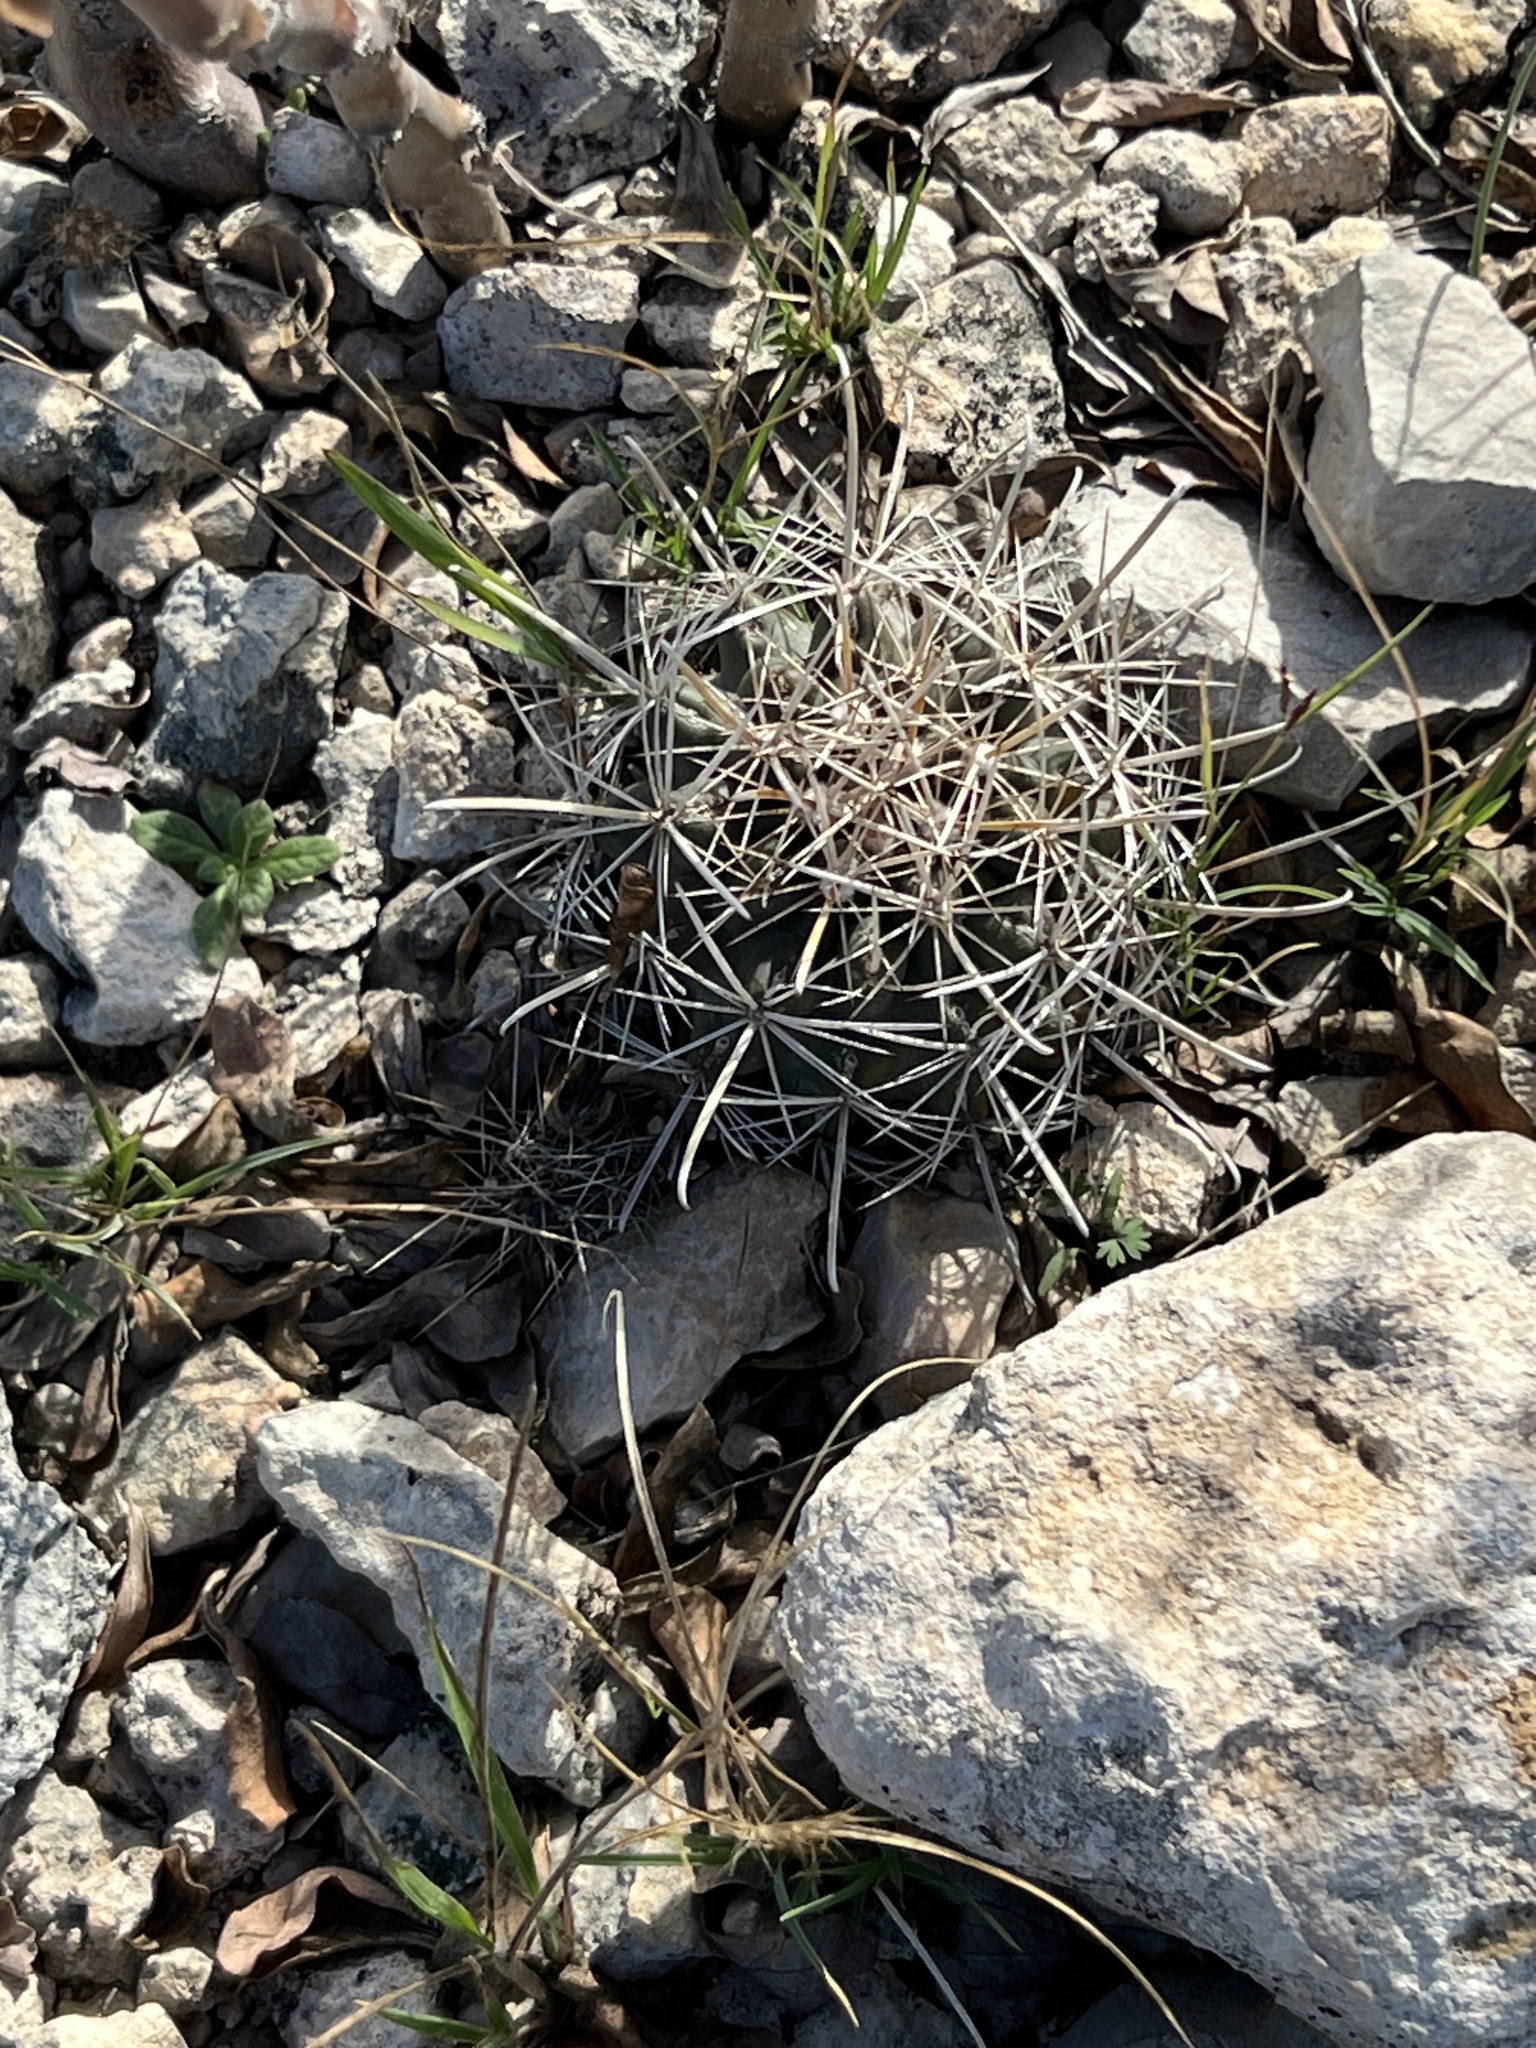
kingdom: Plantae
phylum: Tracheophyta
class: Magnoliopsida
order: Caryophyllales
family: Cactaceae
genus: Sclerocactus
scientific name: Sclerocactus brevihamatus
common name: Engelmann's fishhook cactus
